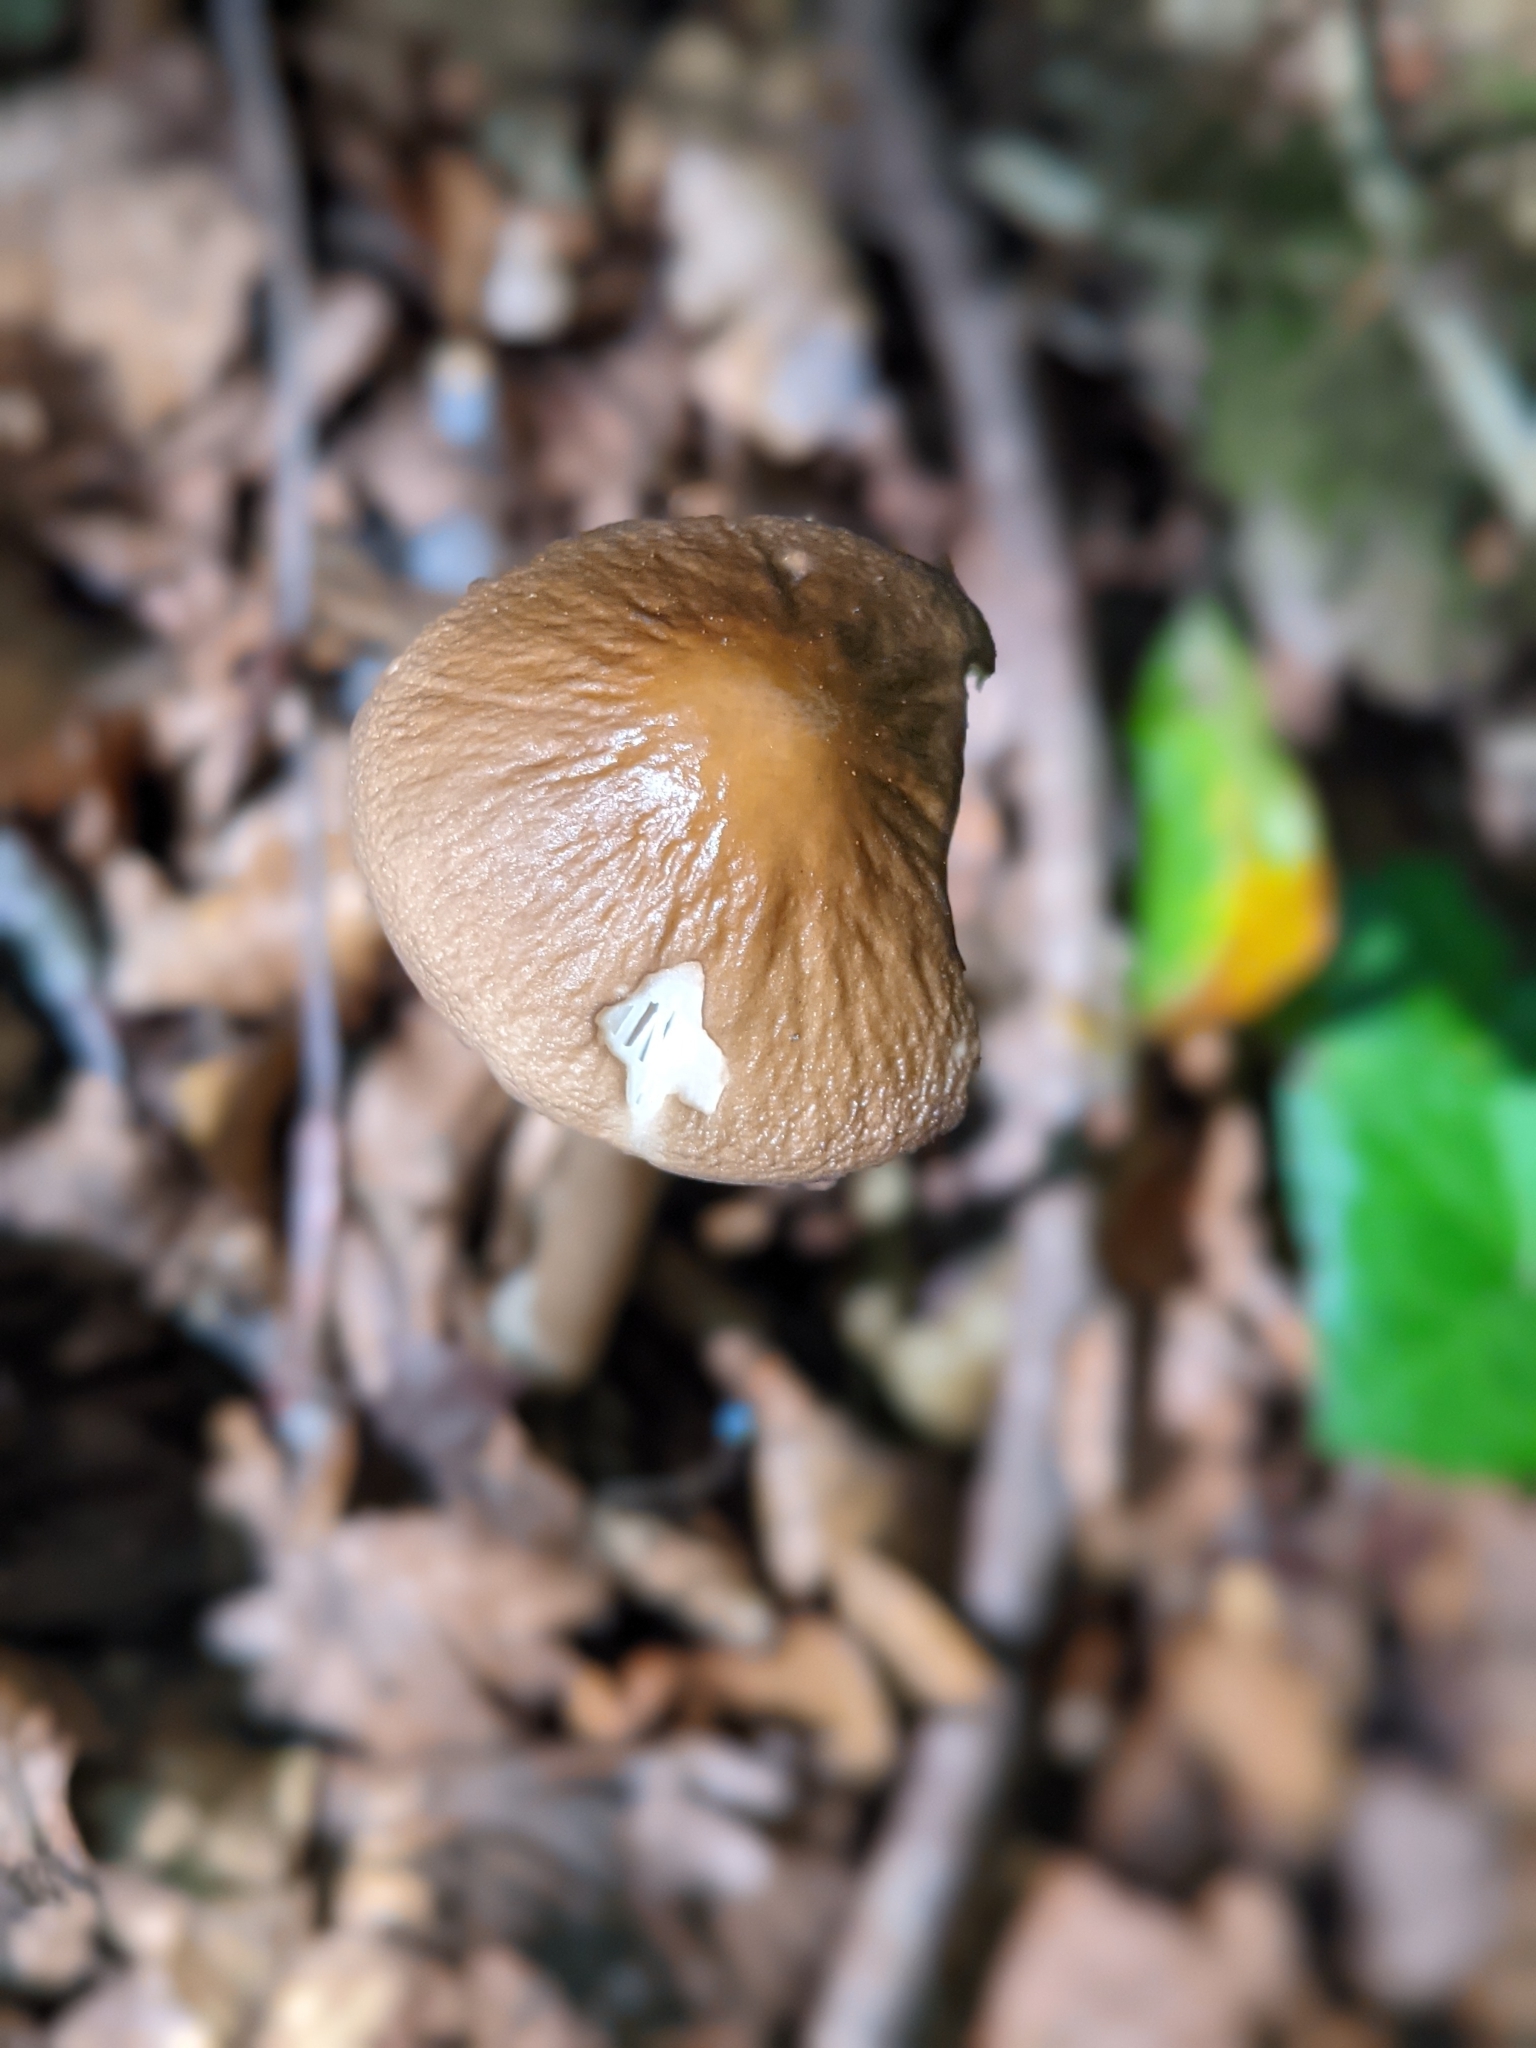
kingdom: Fungi
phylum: Basidiomycota
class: Agaricomycetes
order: Agaricales
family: Physalacriaceae
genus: Hymenopellis
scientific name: Hymenopellis radicata
